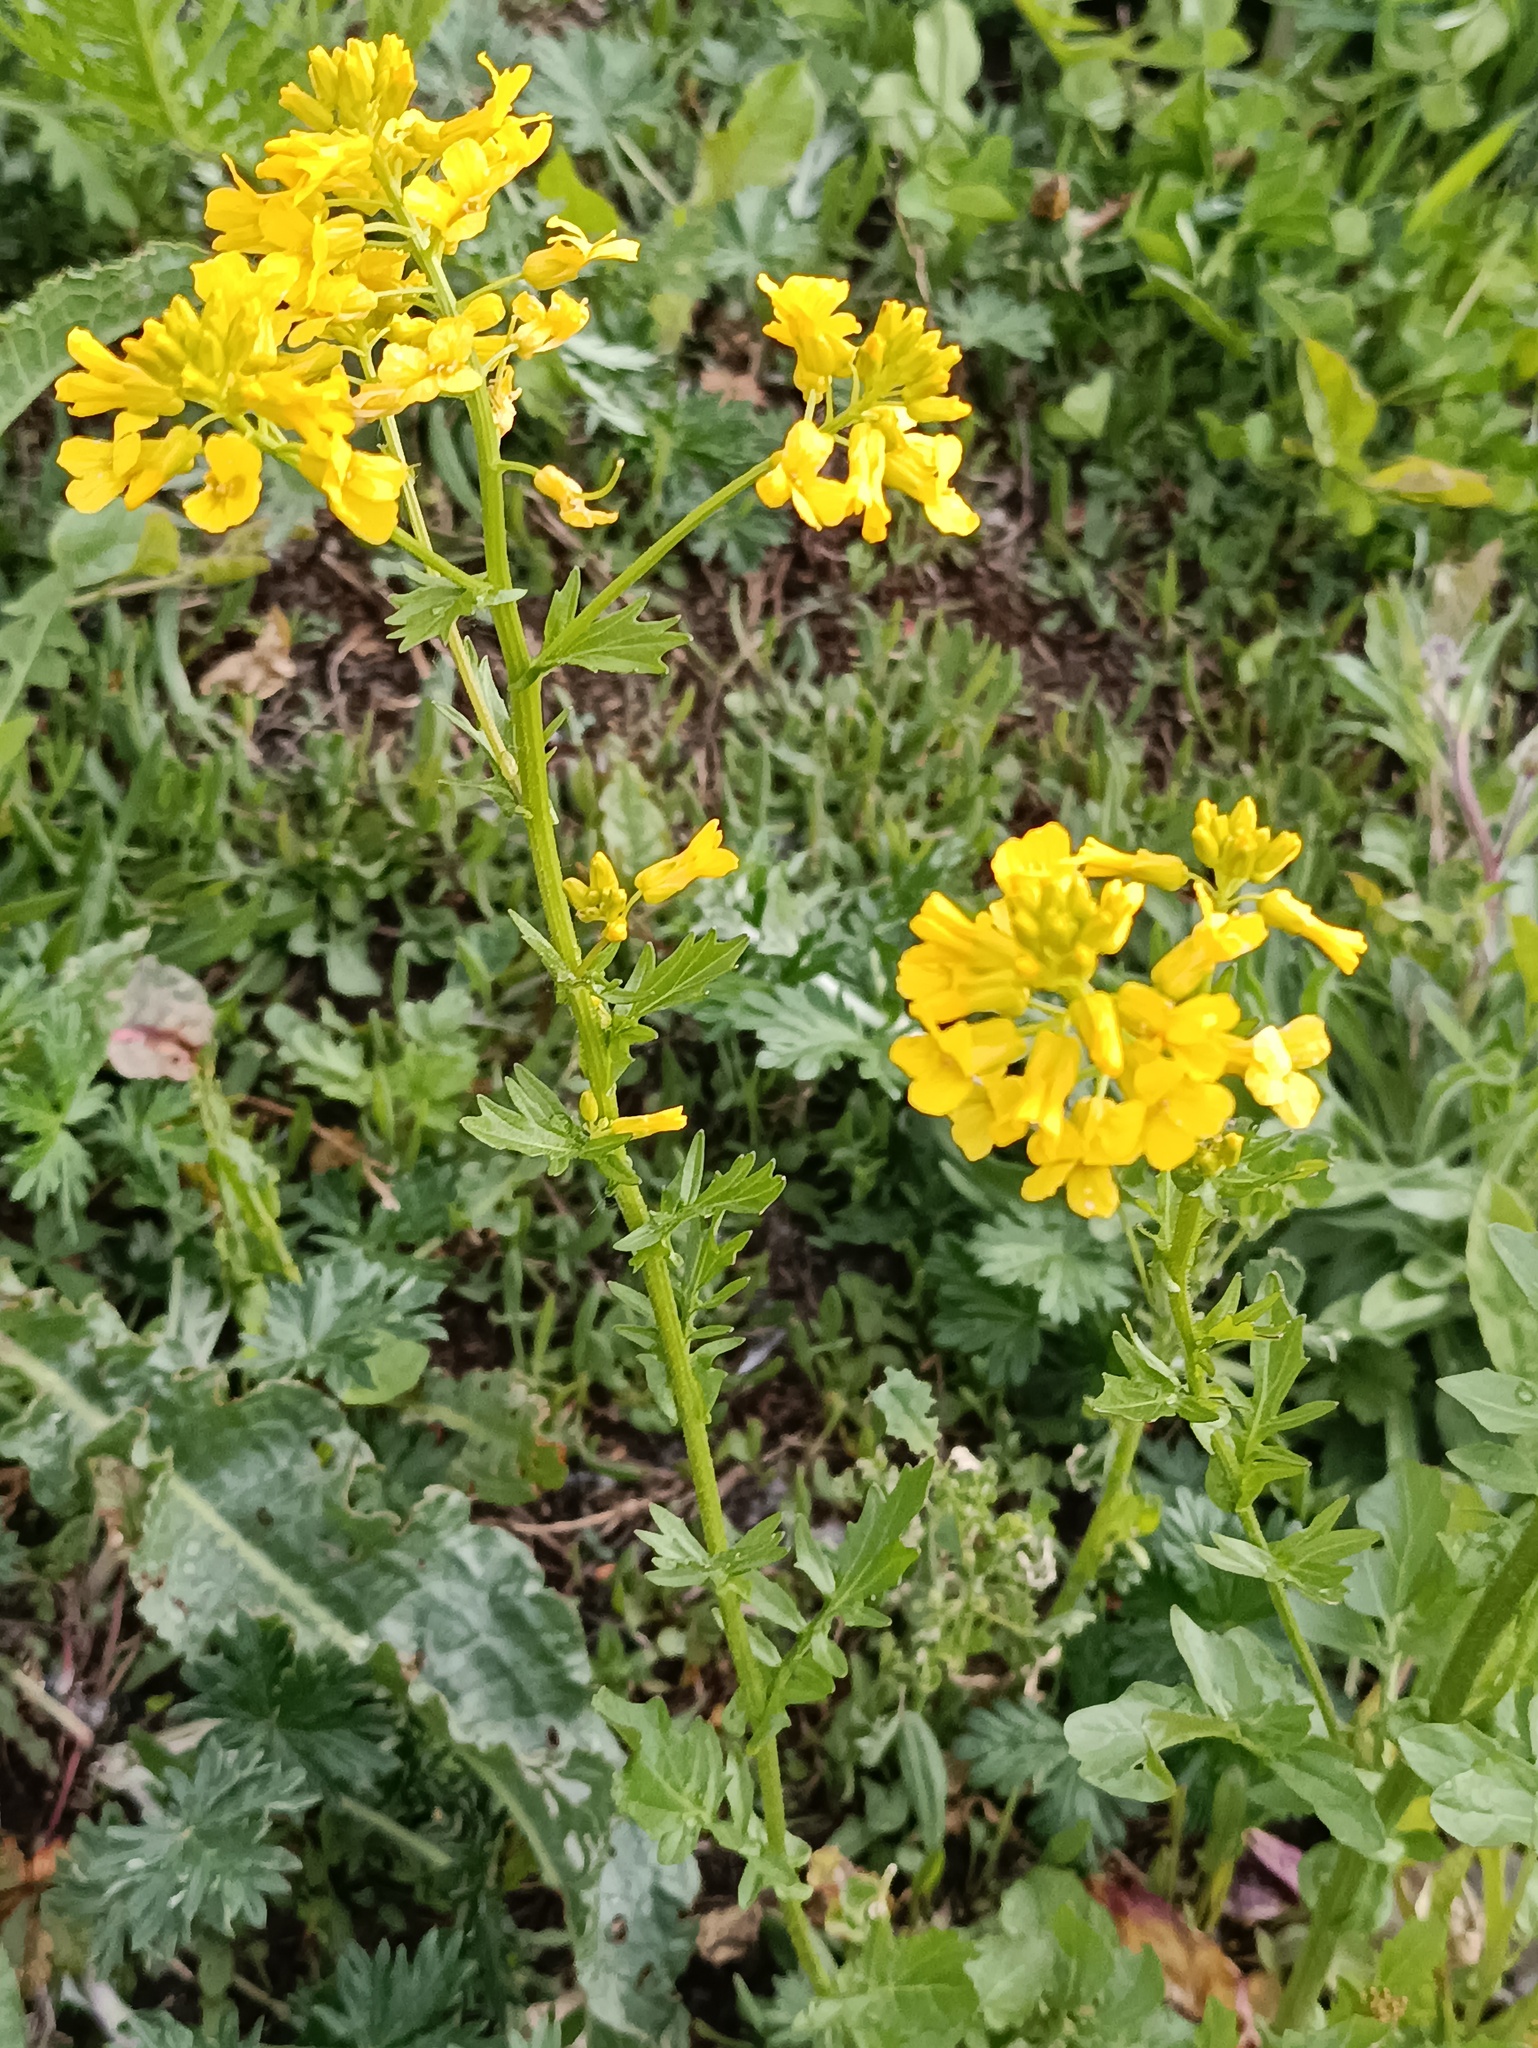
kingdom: Plantae
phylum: Tracheophyta
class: Magnoliopsida
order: Brassicales
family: Brassicaceae
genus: Barbarea
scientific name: Barbarea vulgaris
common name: Cressy-greens
